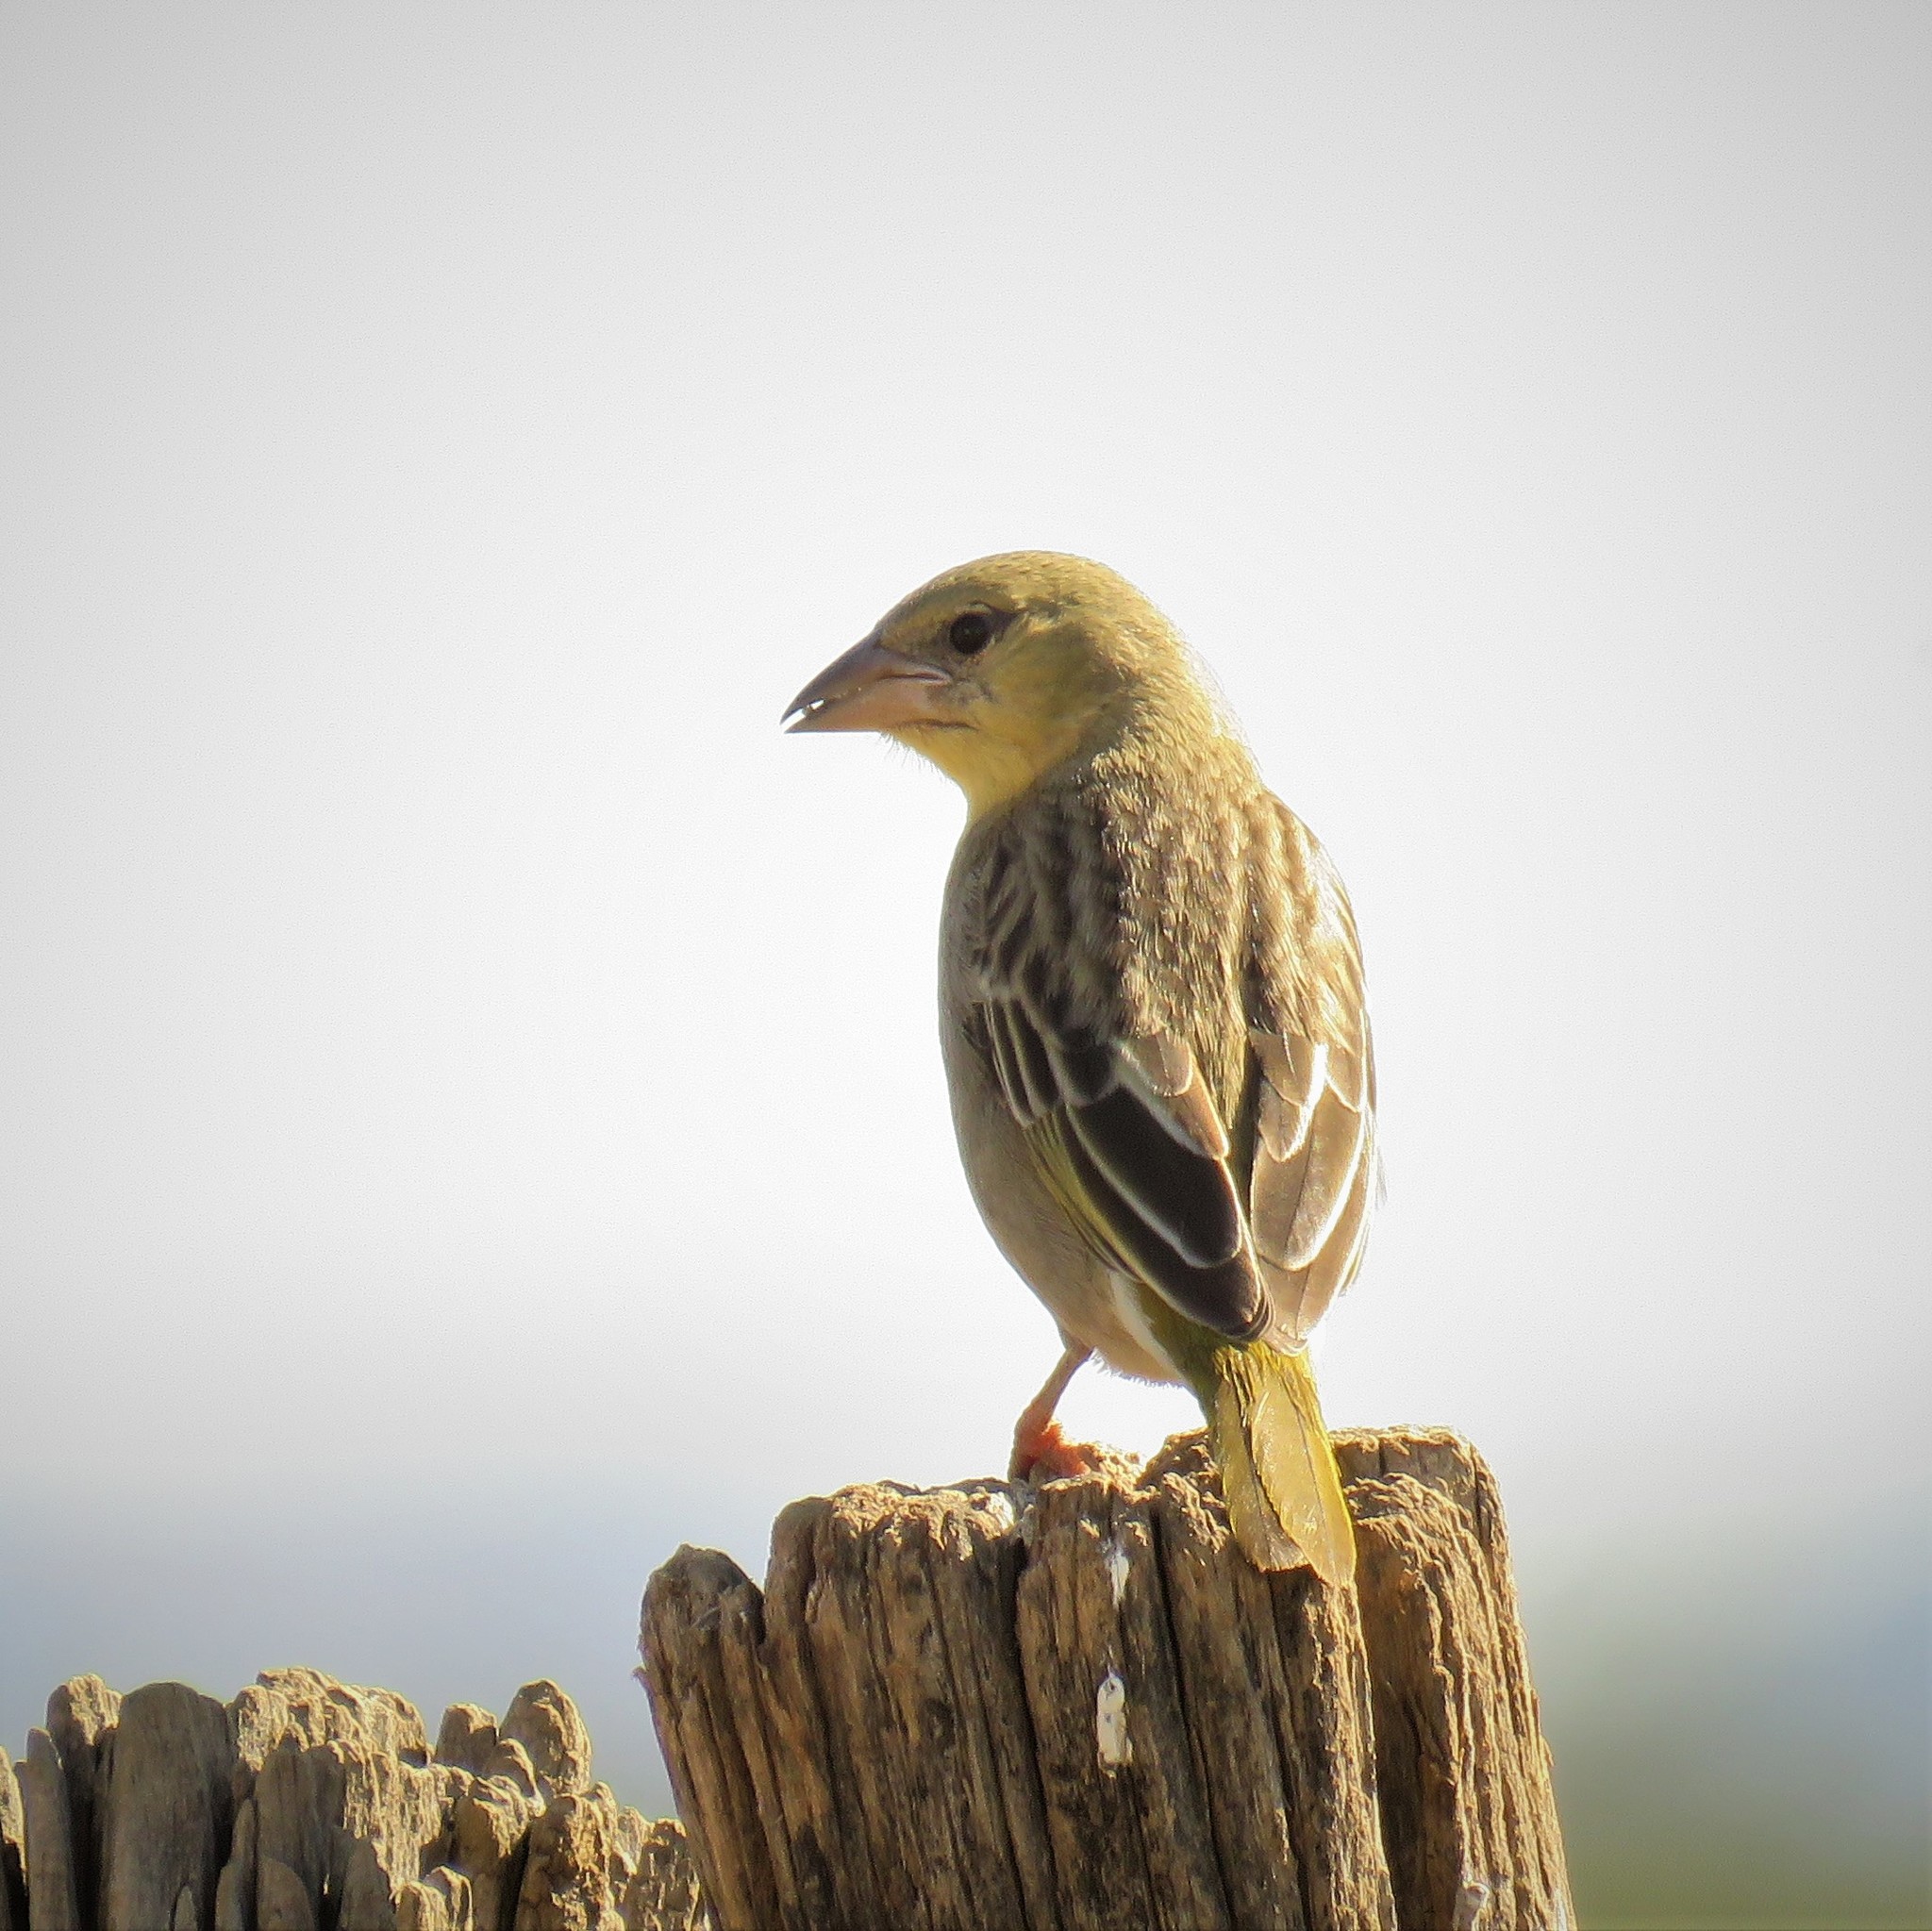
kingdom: Animalia
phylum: Chordata
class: Aves
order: Passeriformes
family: Ploceidae
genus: Ploceus
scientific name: Ploceus velatus
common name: Southern masked weaver
